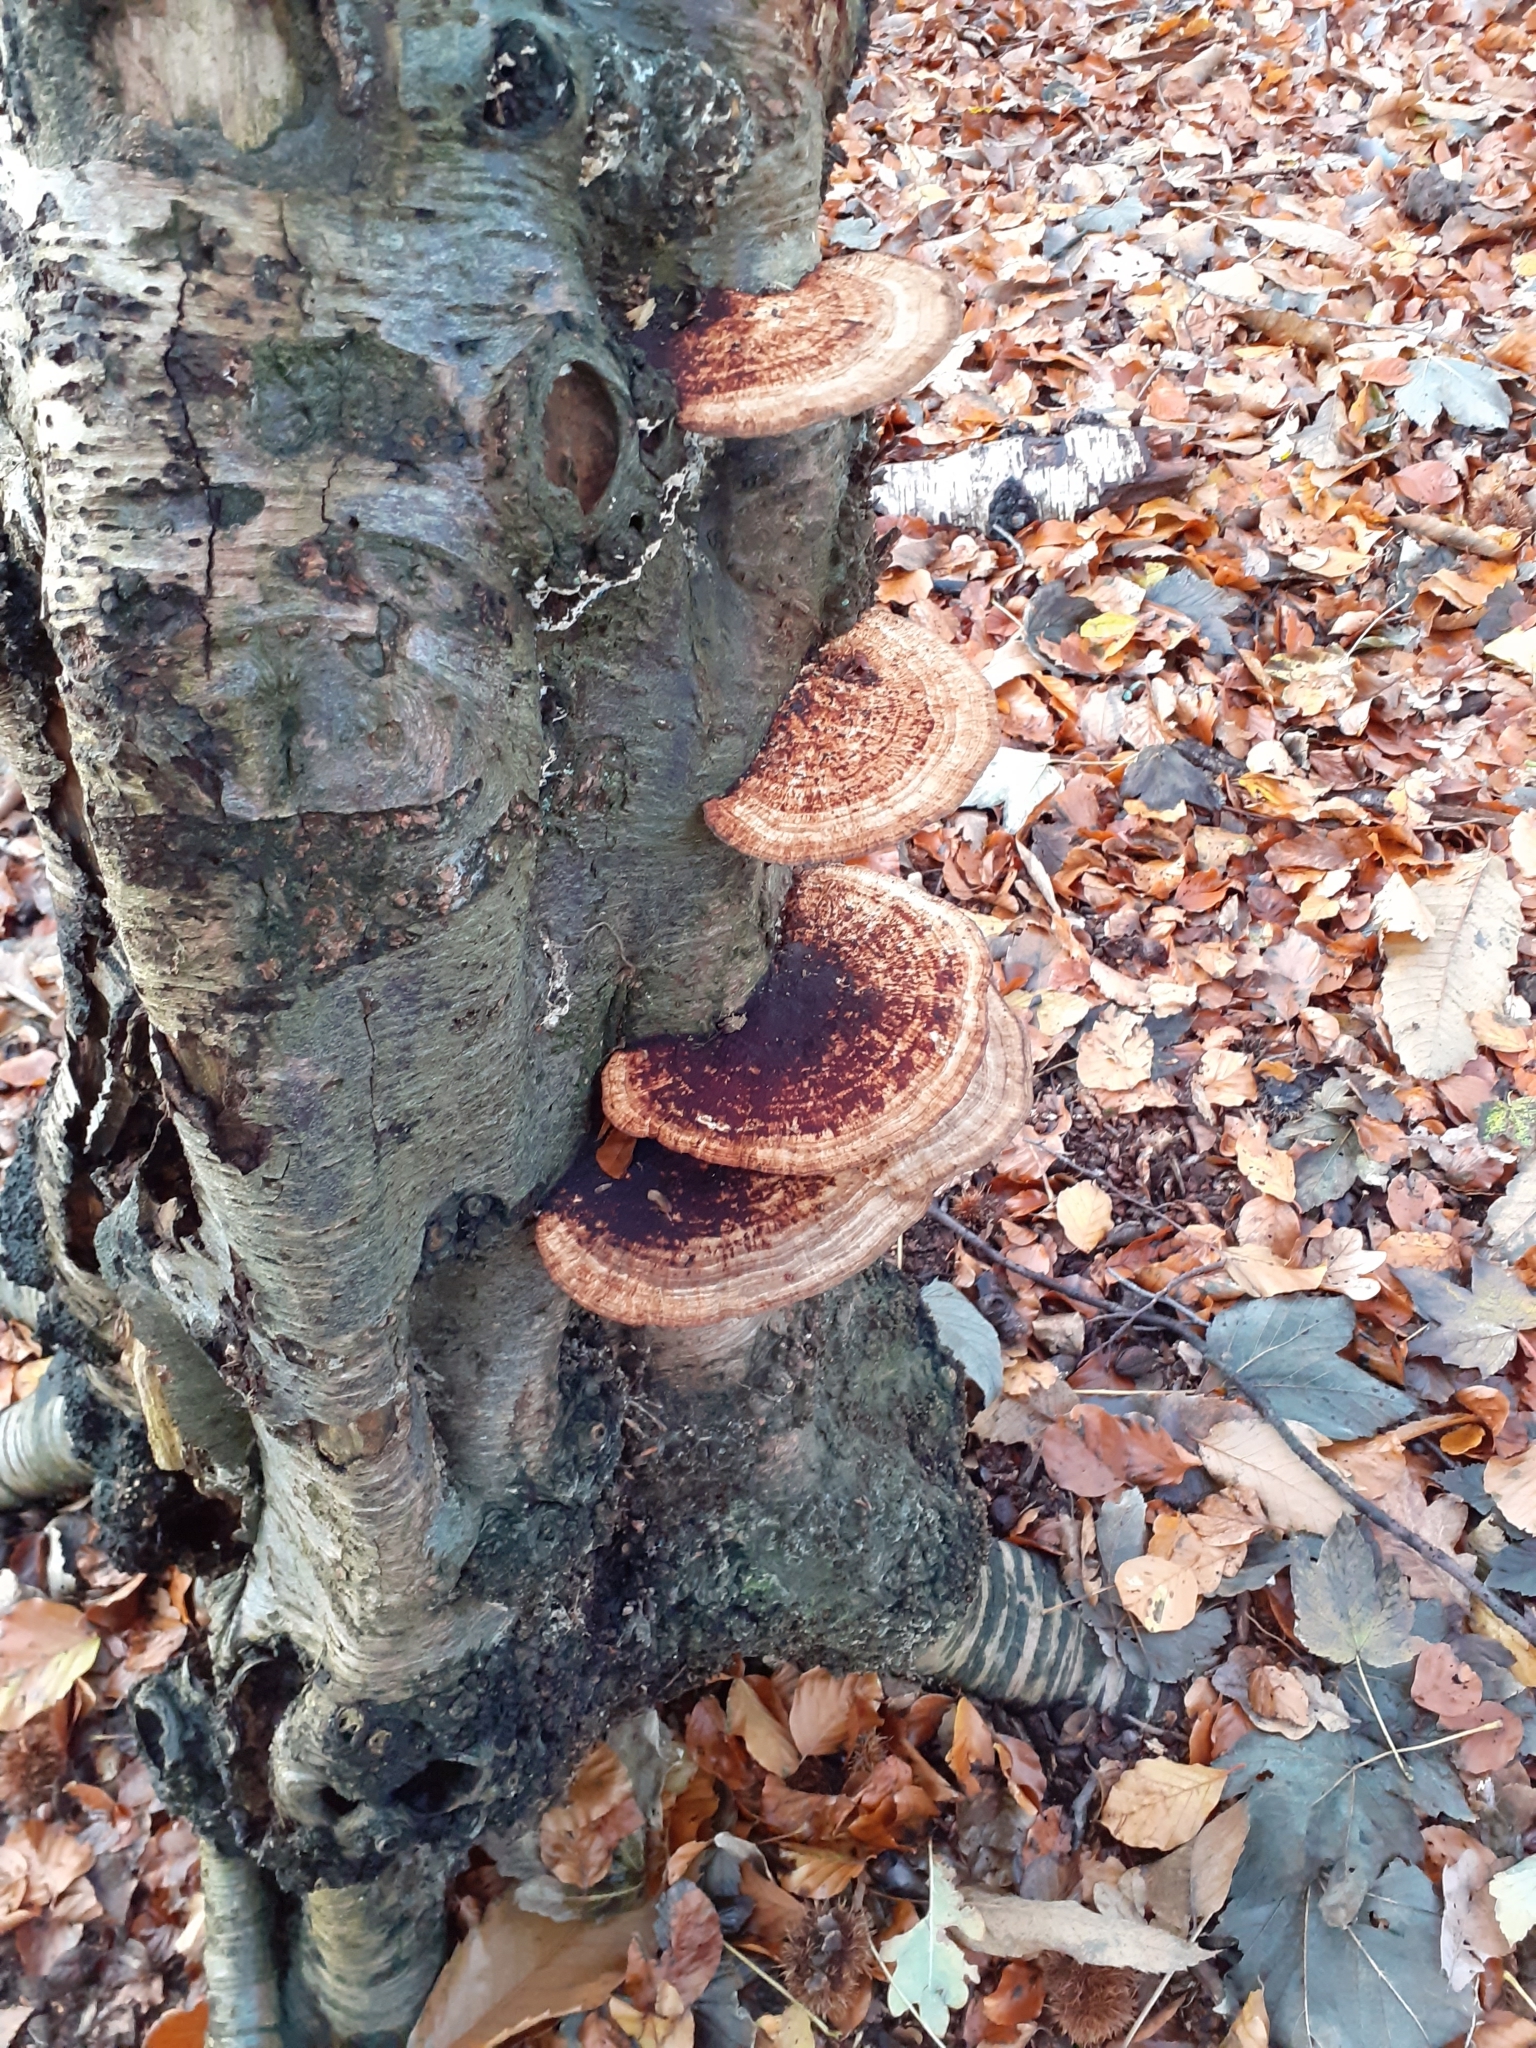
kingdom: Fungi
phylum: Basidiomycota
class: Agaricomycetes
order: Polyporales
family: Polyporaceae
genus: Daedaleopsis
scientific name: Daedaleopsis confragosa
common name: Blushing bracket
